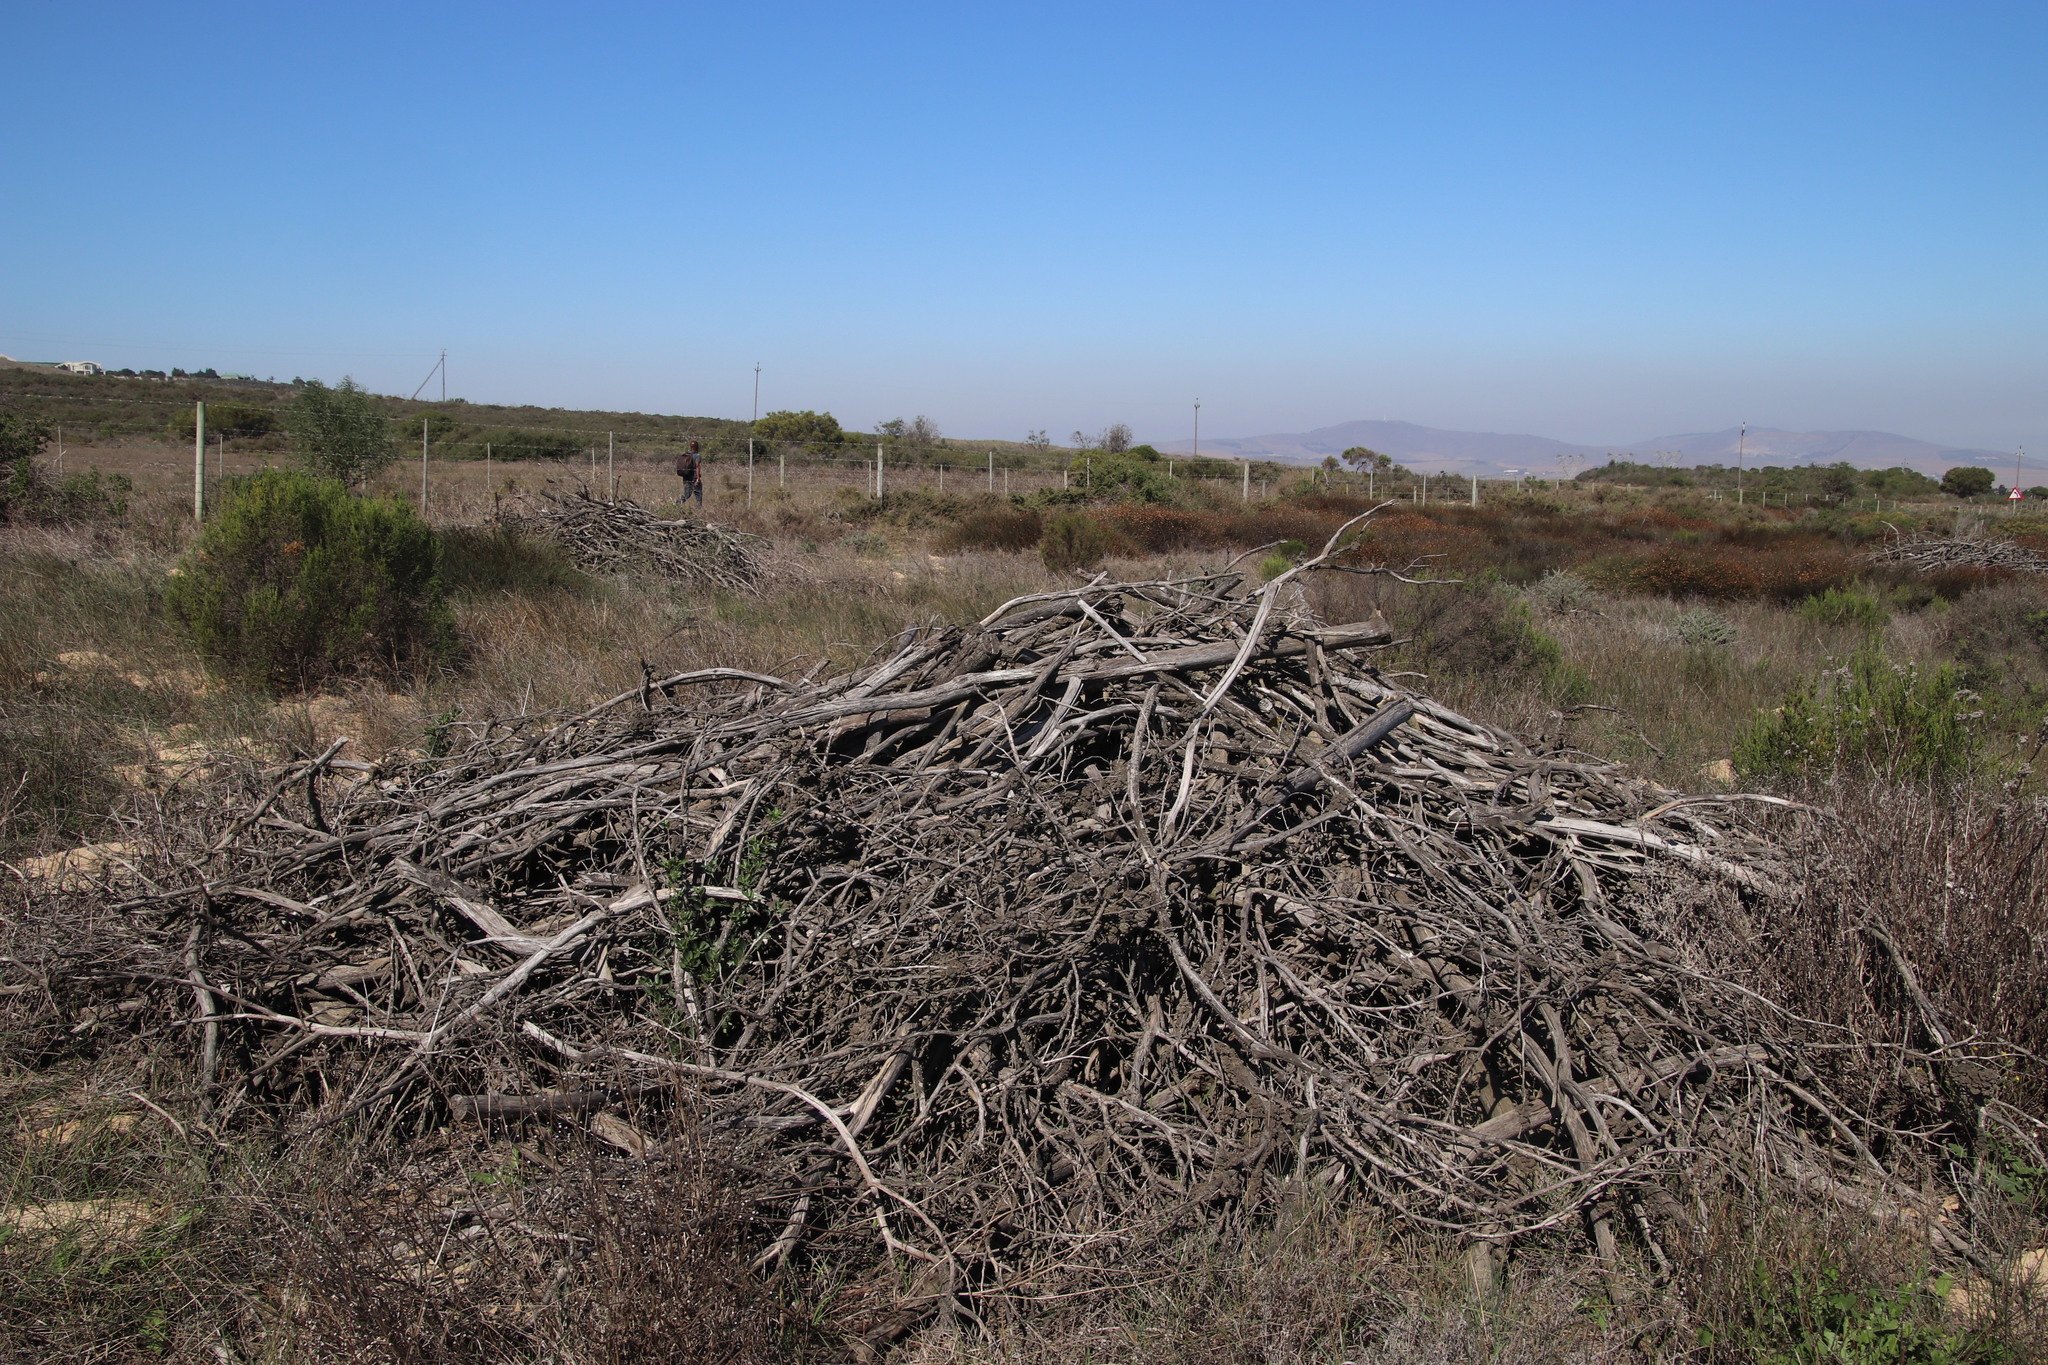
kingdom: Plantae
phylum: Tracheophyta
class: Magnoliopsida
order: Fabales
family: Fabaceae
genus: Acacia
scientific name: Acacia saligna
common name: Orange wattle
